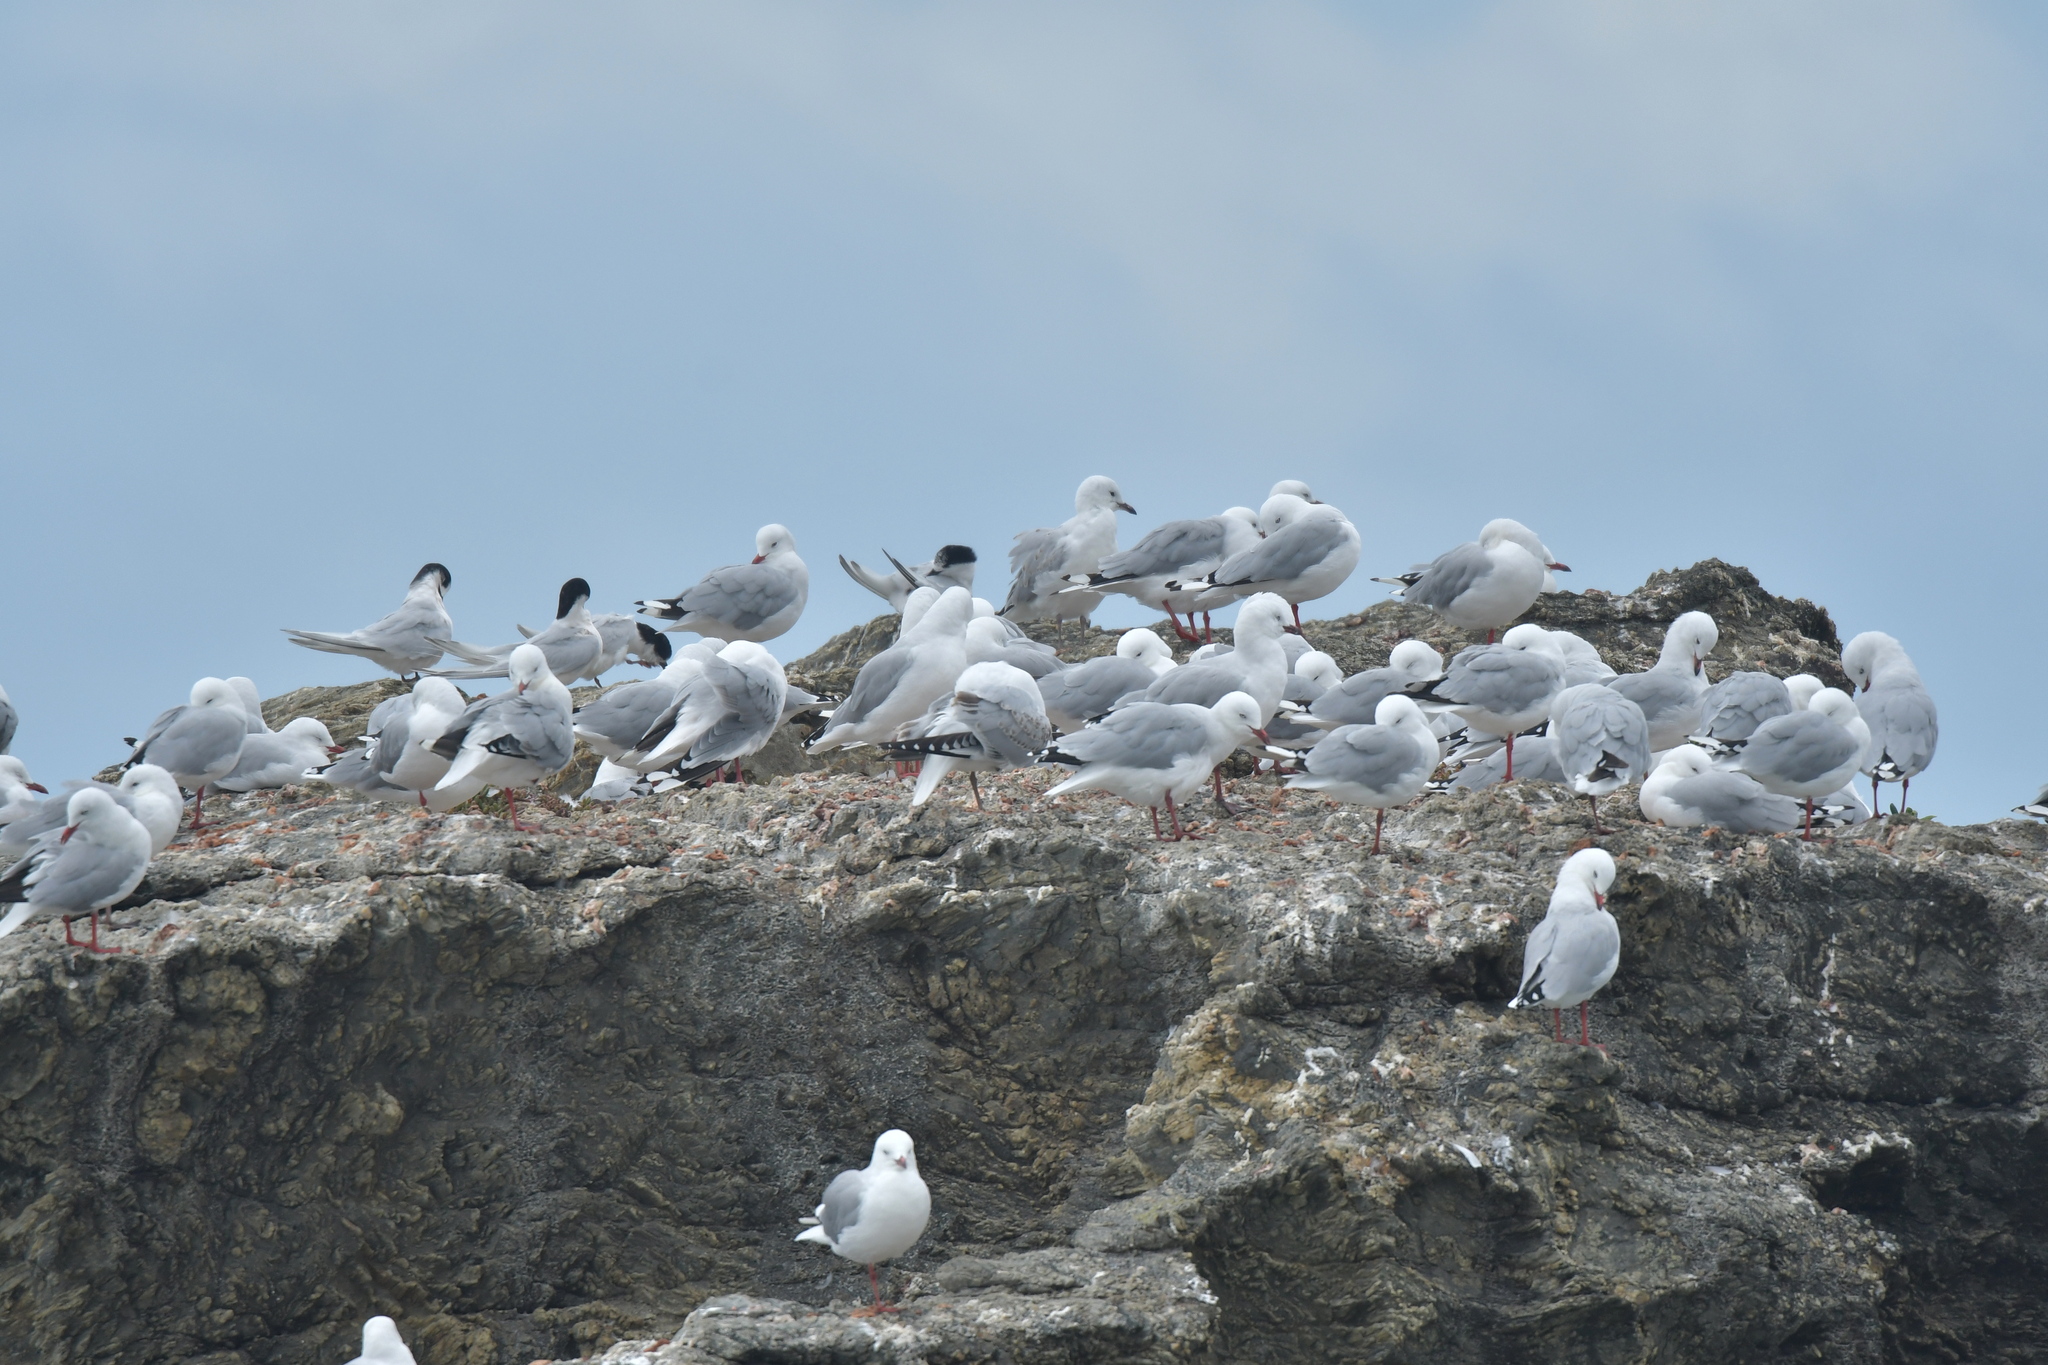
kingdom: Animalia
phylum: Chordata
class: Aves
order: Charadriiformes
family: Laridae
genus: Chroicocephalus
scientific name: Chroicocephalus novaehollandiae
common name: Silver gull
